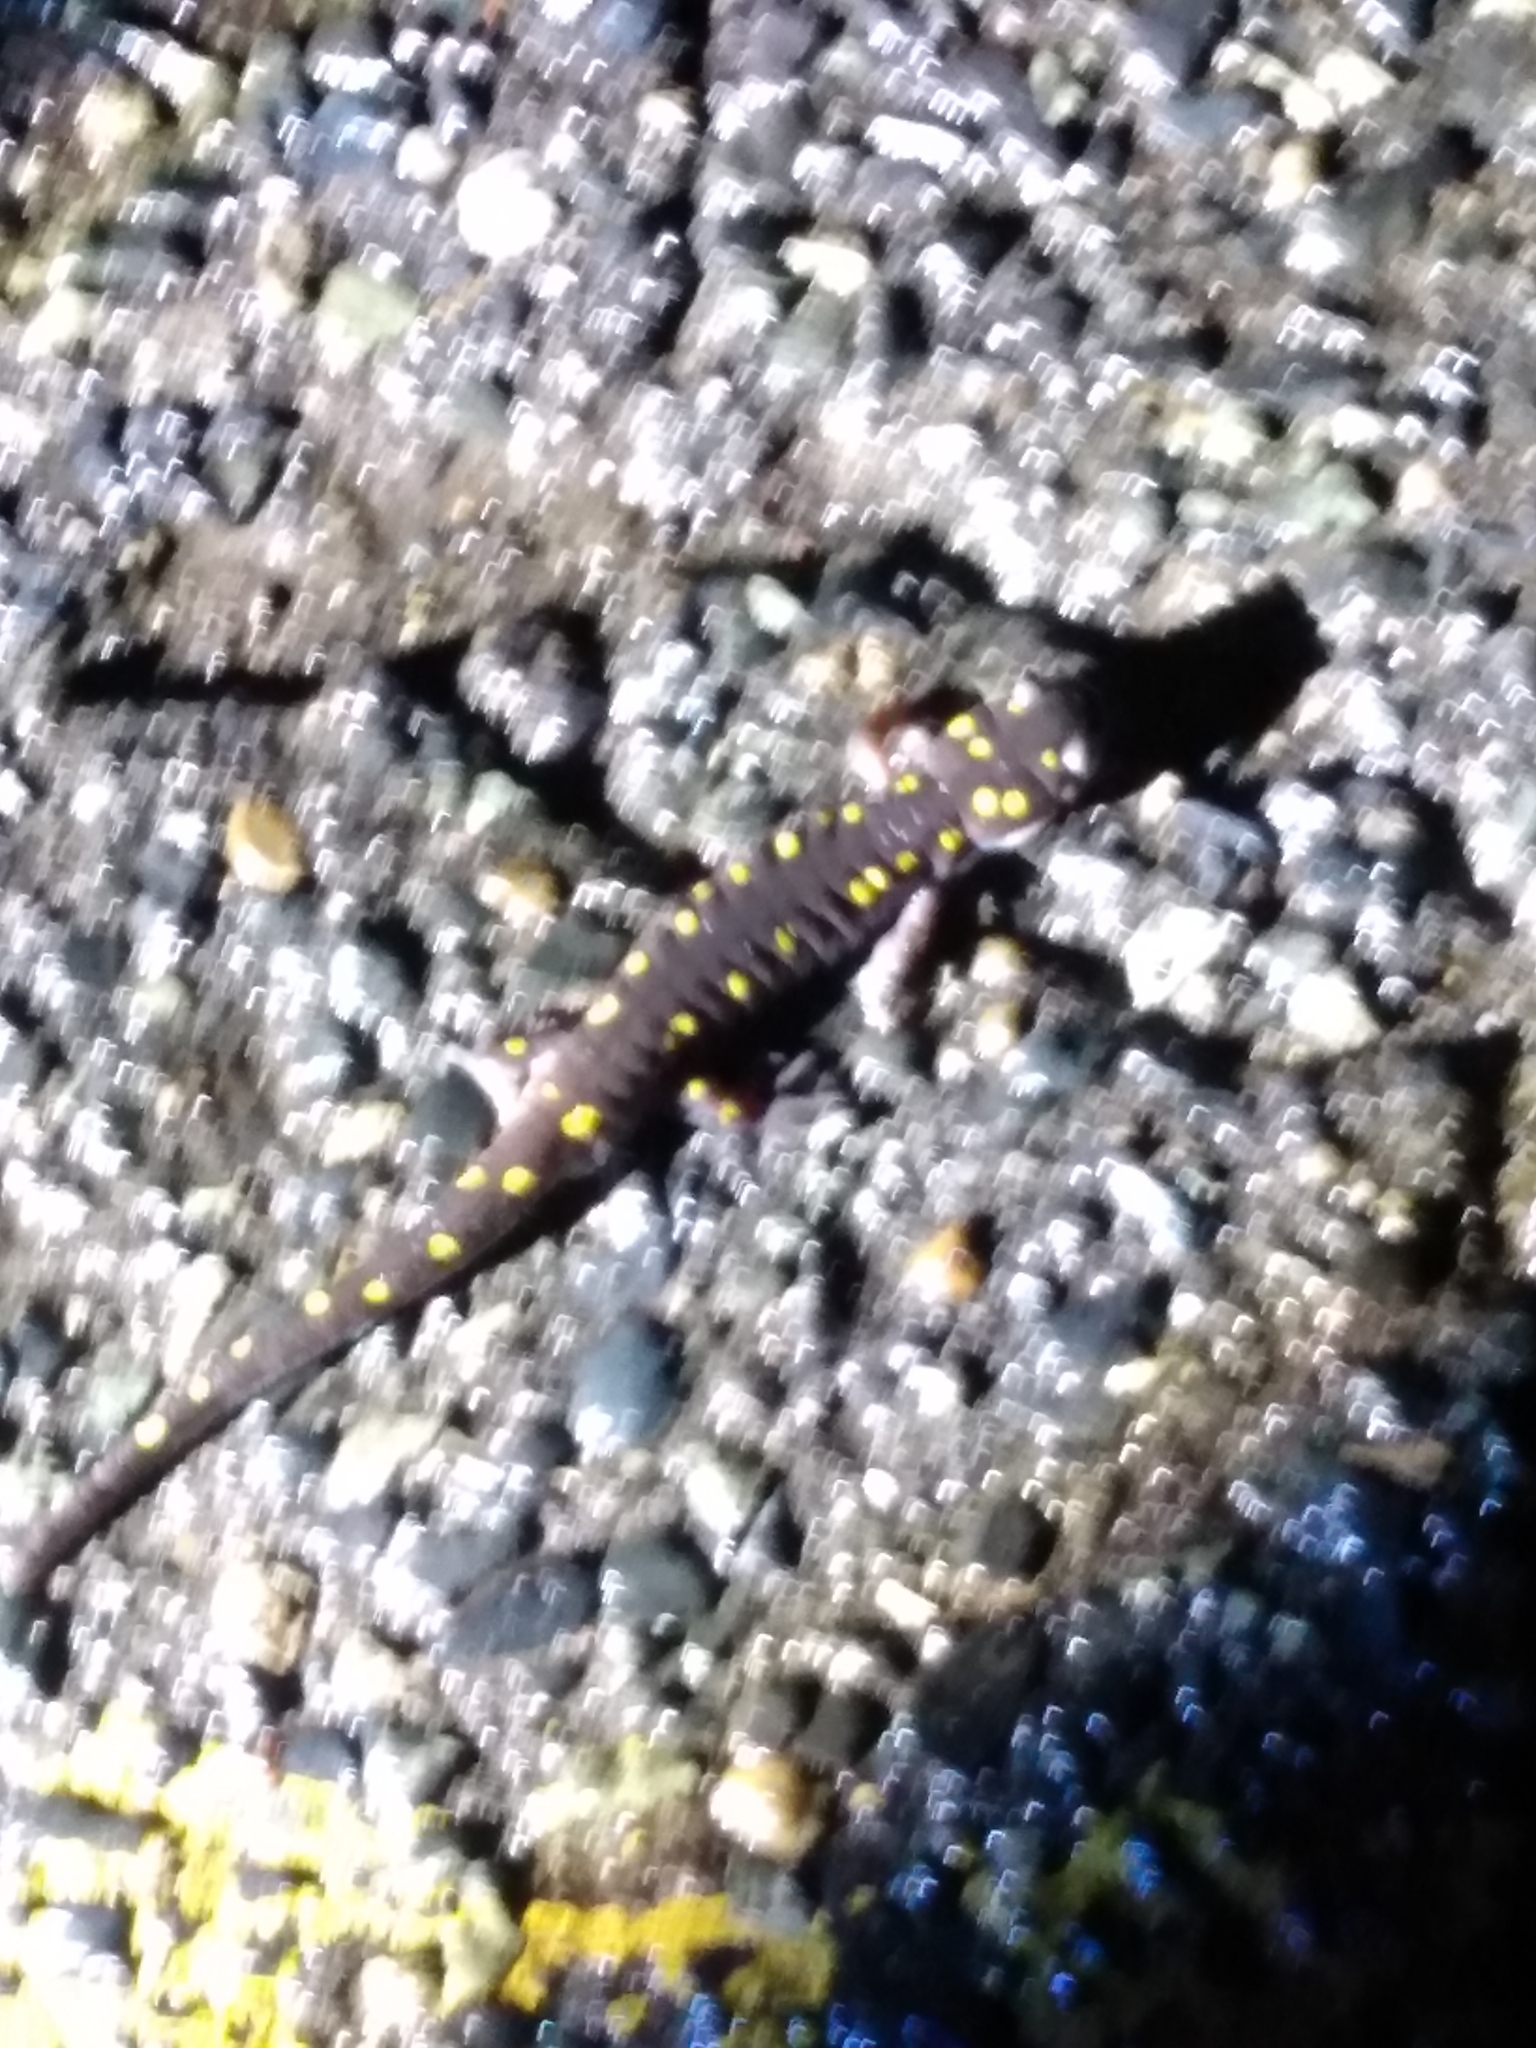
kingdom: Animalia
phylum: Chordata
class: Amphibia
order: Caudata
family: Ambystomatidae
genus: Ambystoma
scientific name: Ambystoma maculatum
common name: Spotted salamander
